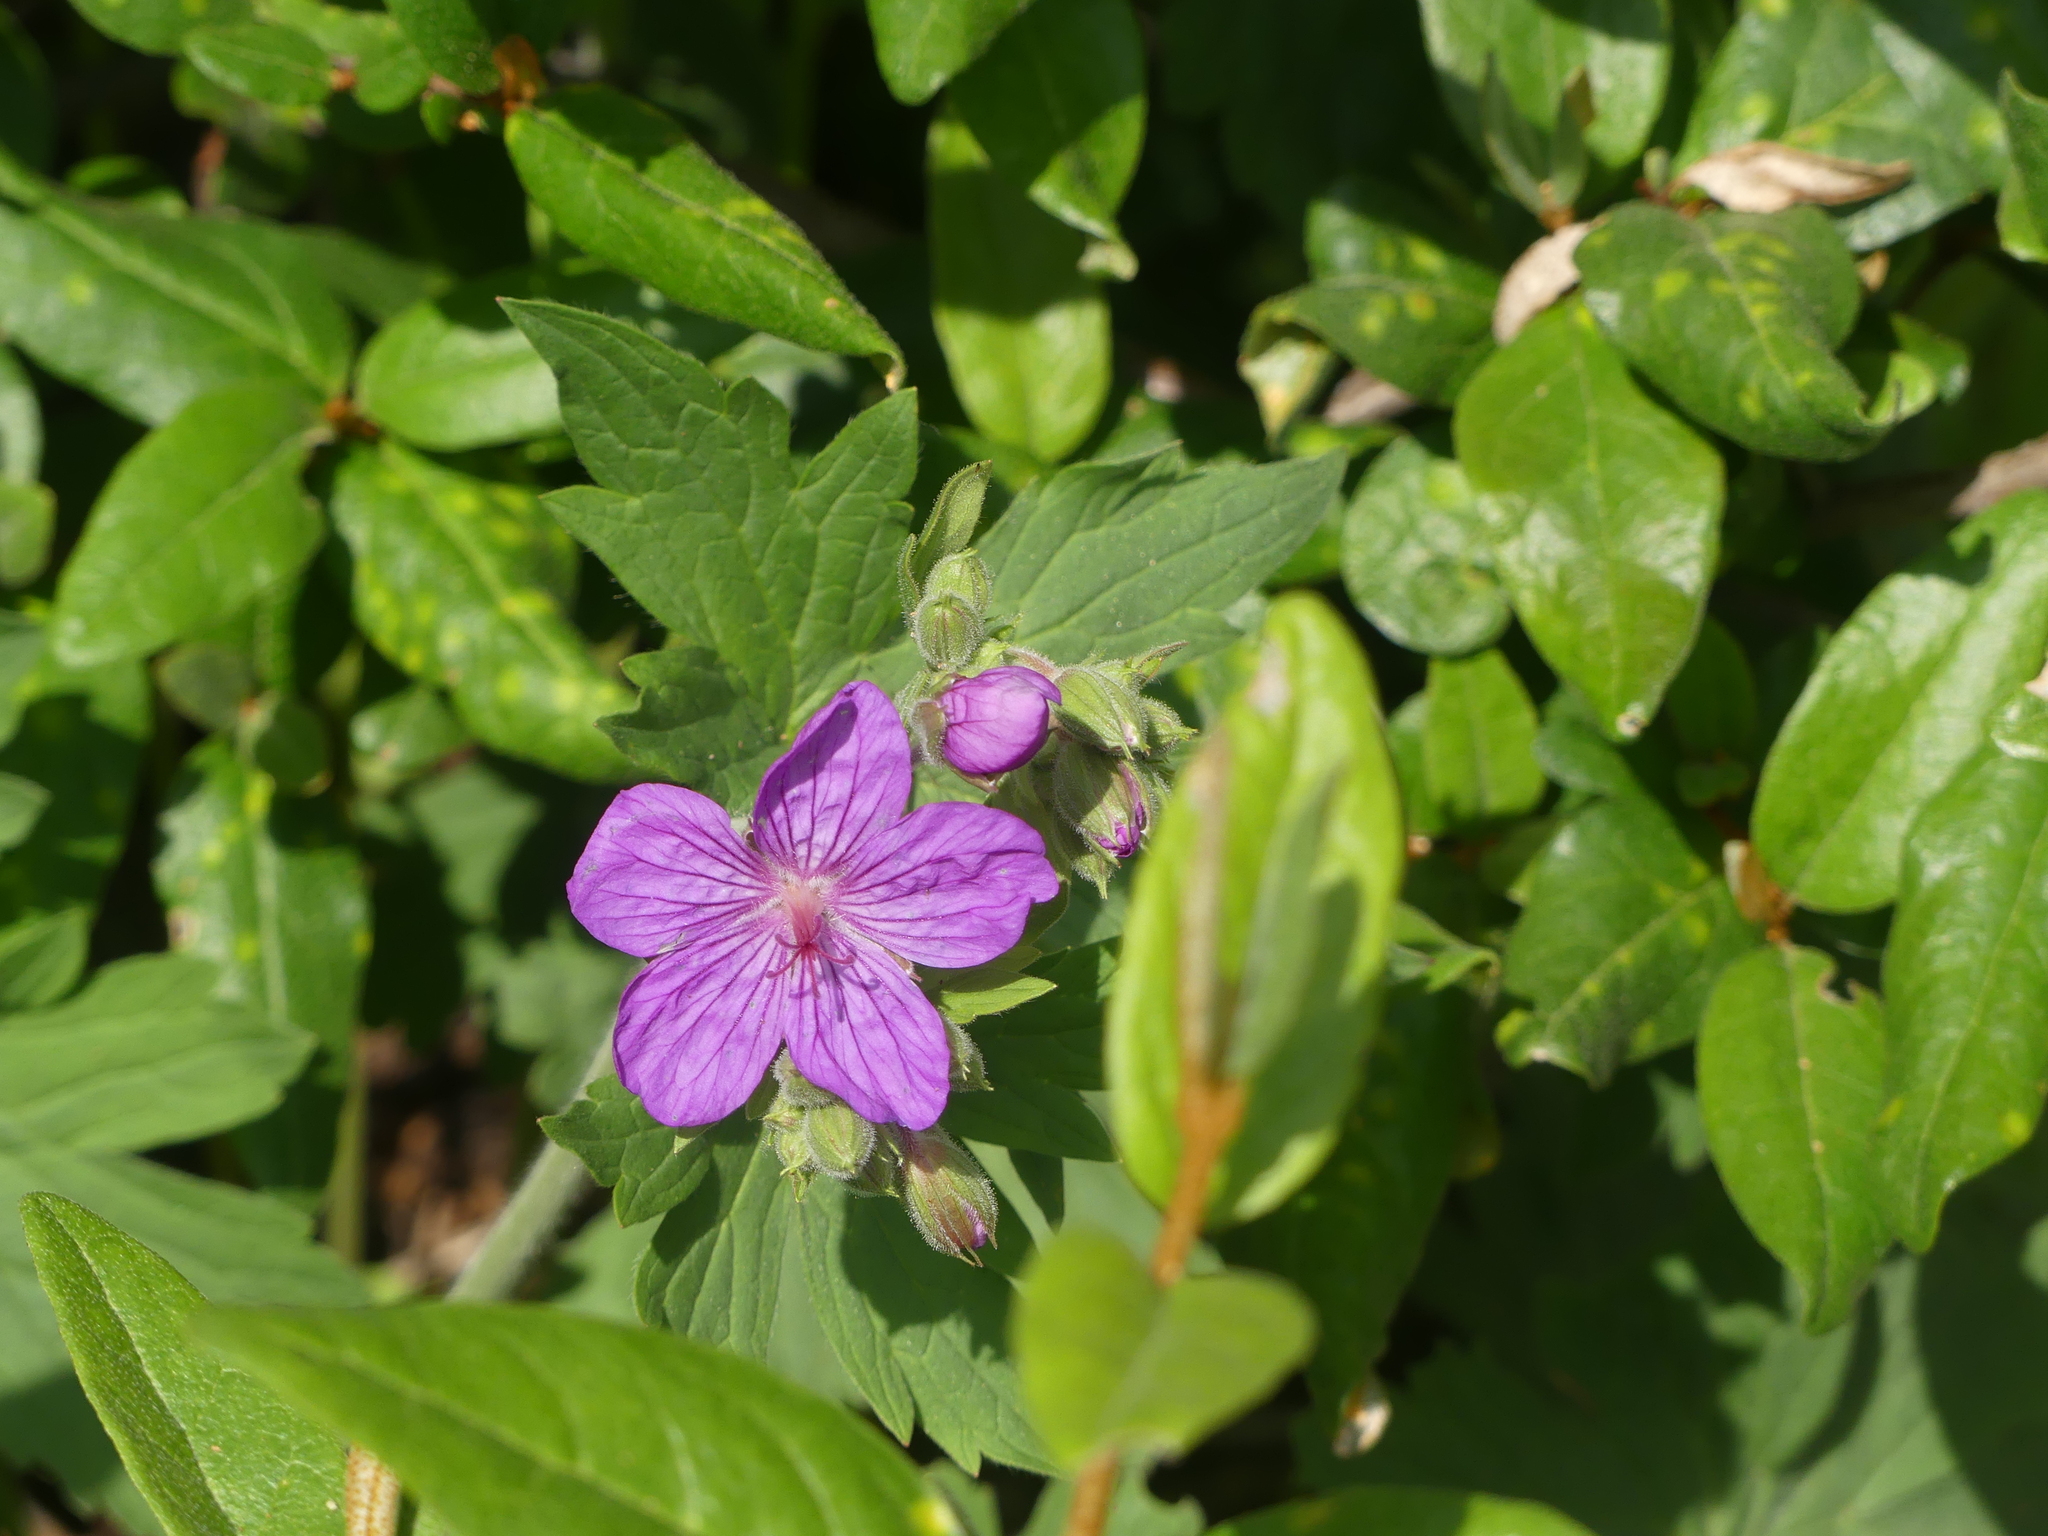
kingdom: Plantae
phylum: Tracheophyta
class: Magnoliopsida
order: Geraniales
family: Geraniaceae
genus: Geranium
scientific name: Geranium viscosissimum
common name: Purple geranium
